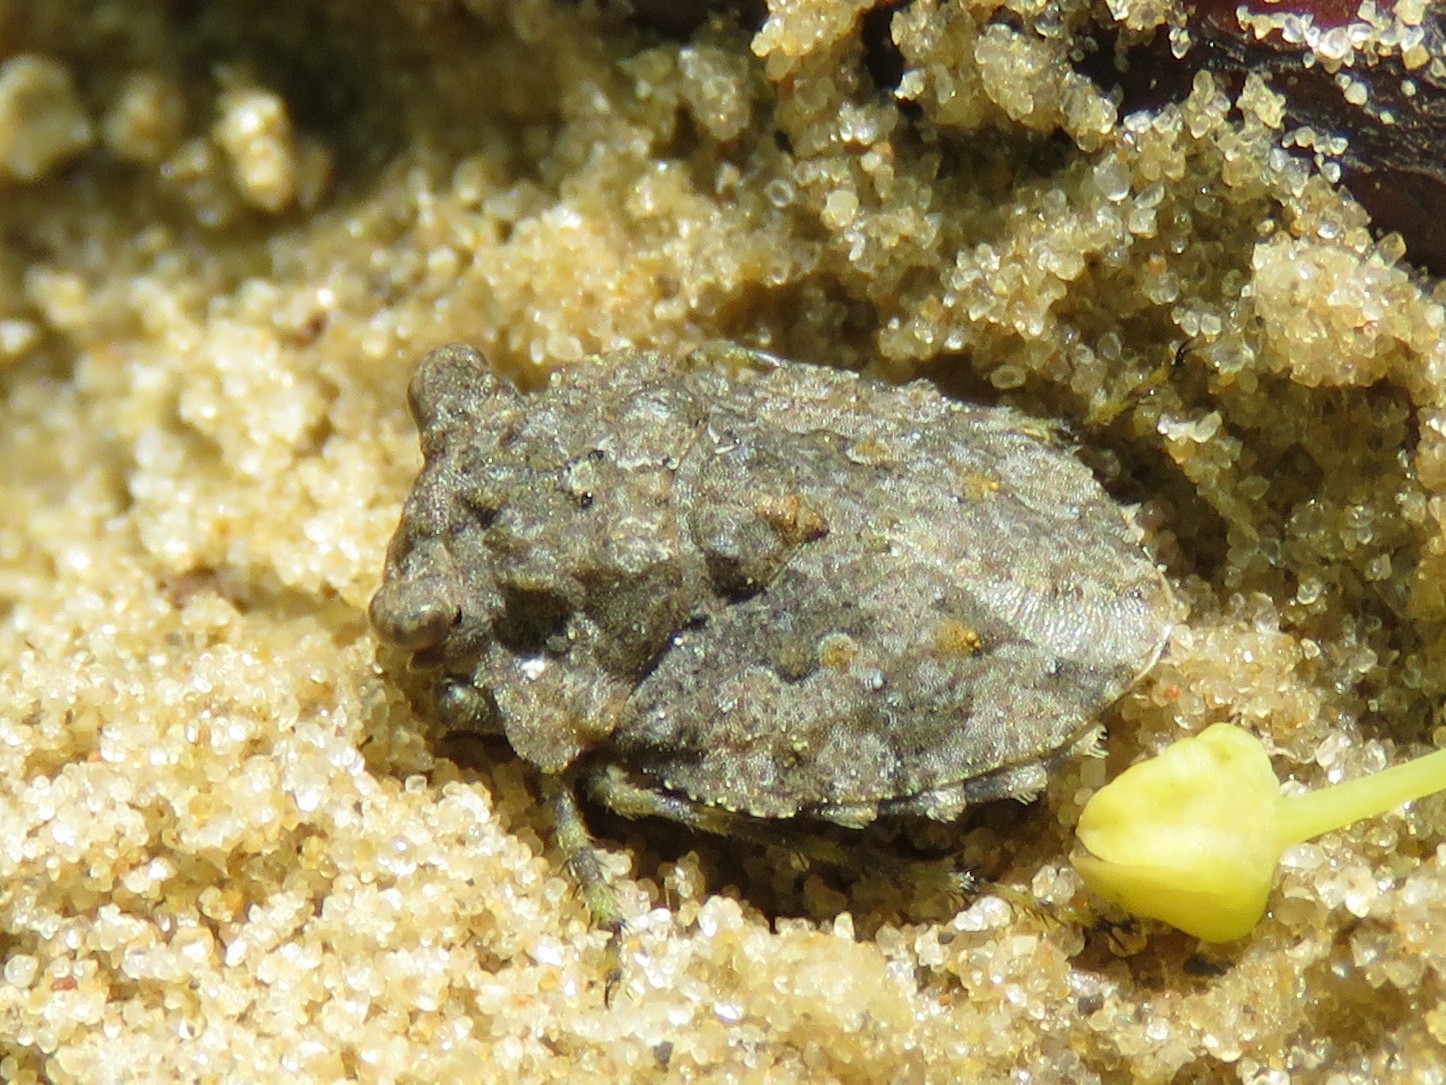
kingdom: Animalia
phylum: Arthropoda
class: Insecta
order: Hemiptera
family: Gelastocoridae
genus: Gelastocoris
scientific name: Gelastocoris oculatus
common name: Toad bug
